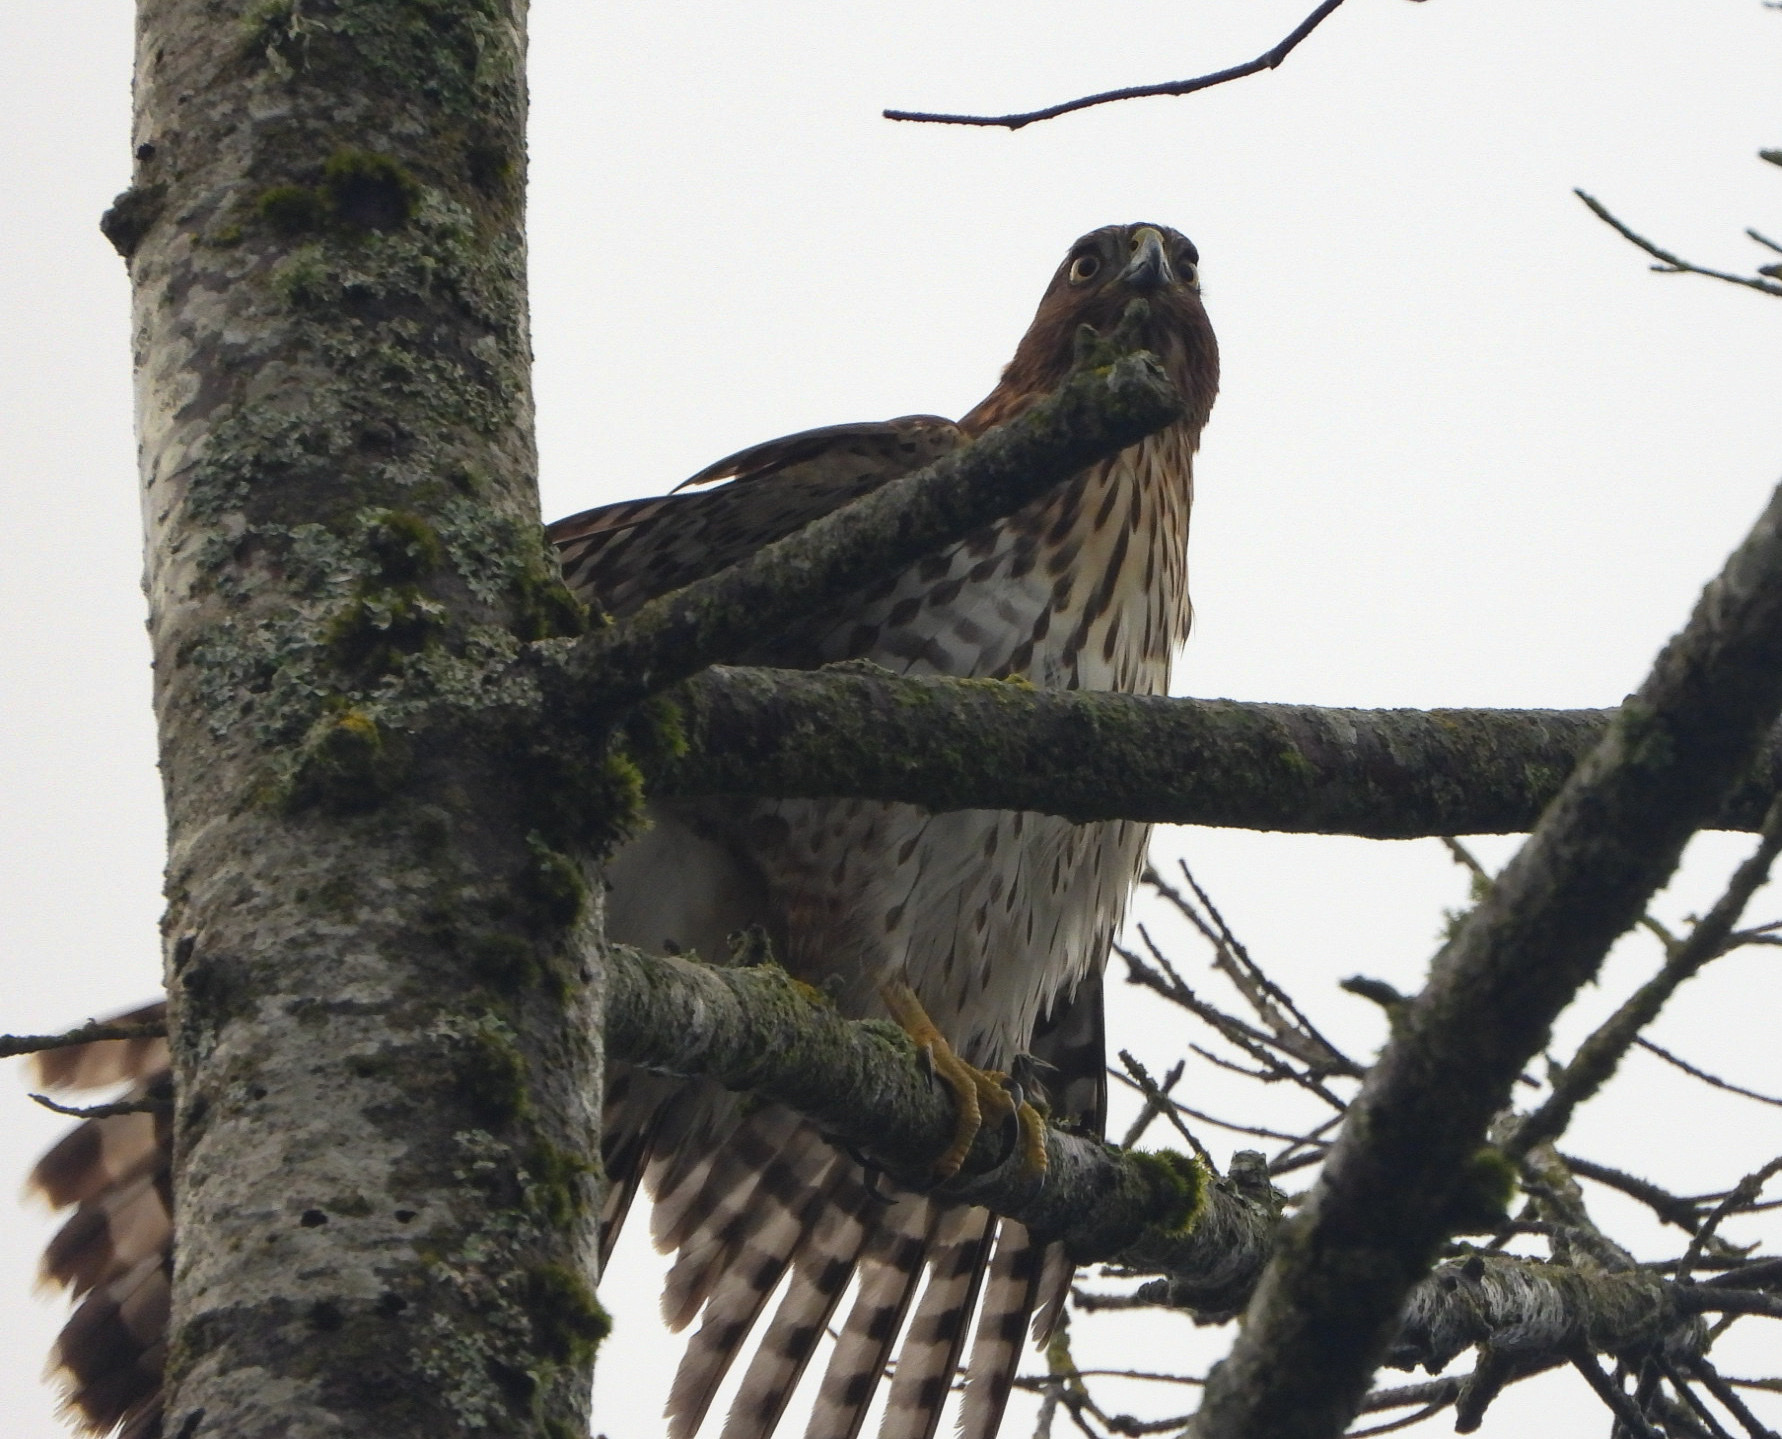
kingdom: Animalia
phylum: Chordata
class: Aves
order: Accipitriformes
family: Accipitridae
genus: Accipiter
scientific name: Accipiter cooperii
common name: Cooper's hawk
